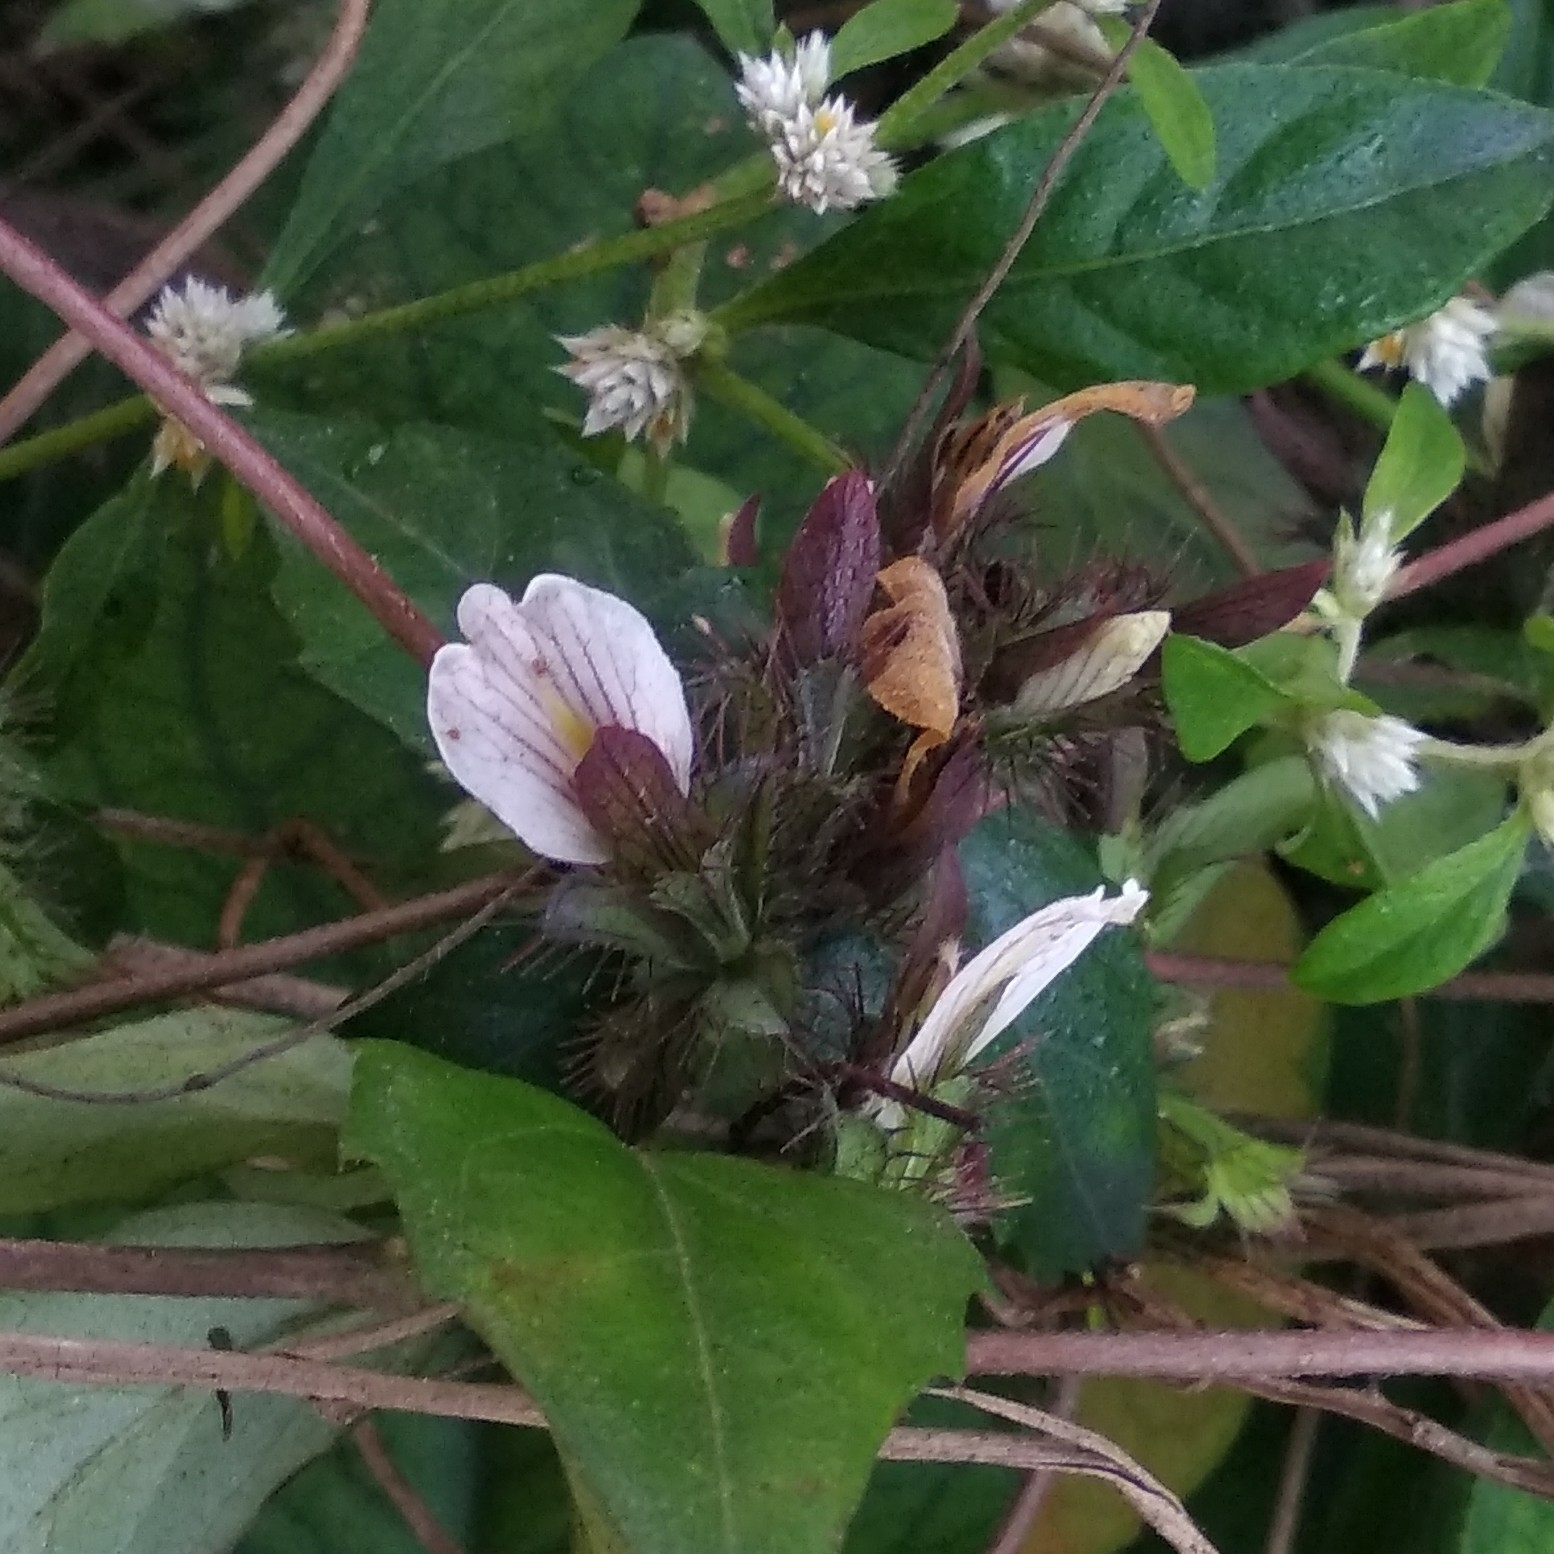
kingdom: Plantae
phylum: Tracheophyta
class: Magnoliopsida
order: Lamiales
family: Acanthaceae
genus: Blepharis
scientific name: Blepharis maderaspatensis
